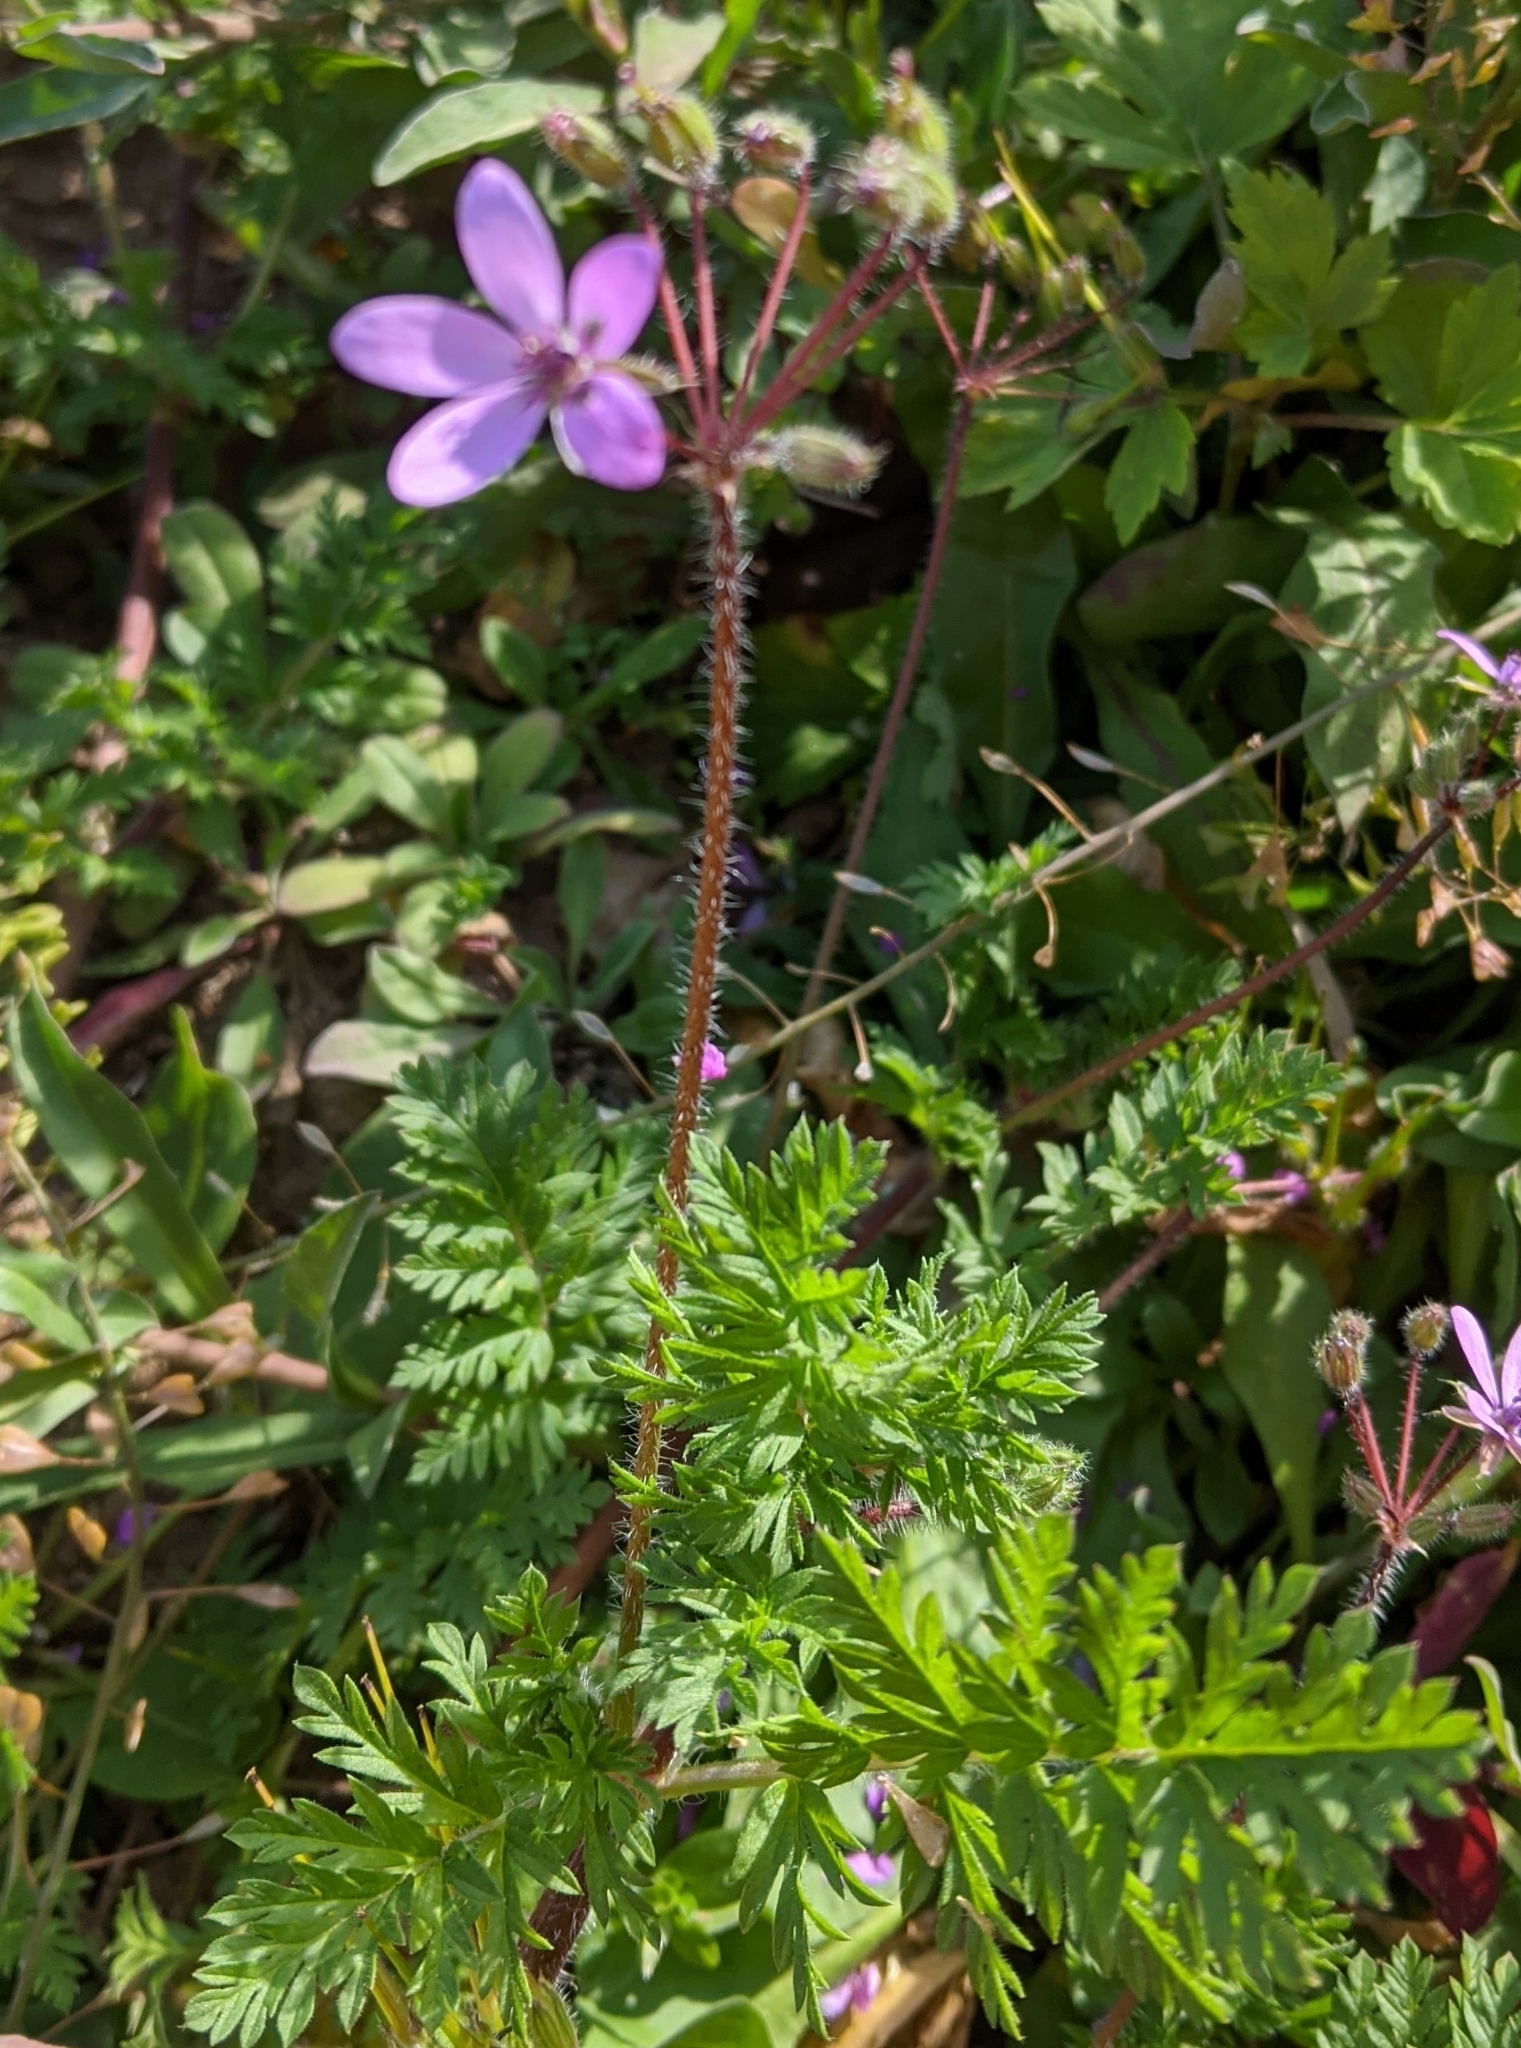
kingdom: Plantae
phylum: Tracheophyta
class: Magnoliopsida
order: Geraniales
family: Geraniaceae
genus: Erodium
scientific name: Erodium cicutarium
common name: Common stork's-bill
